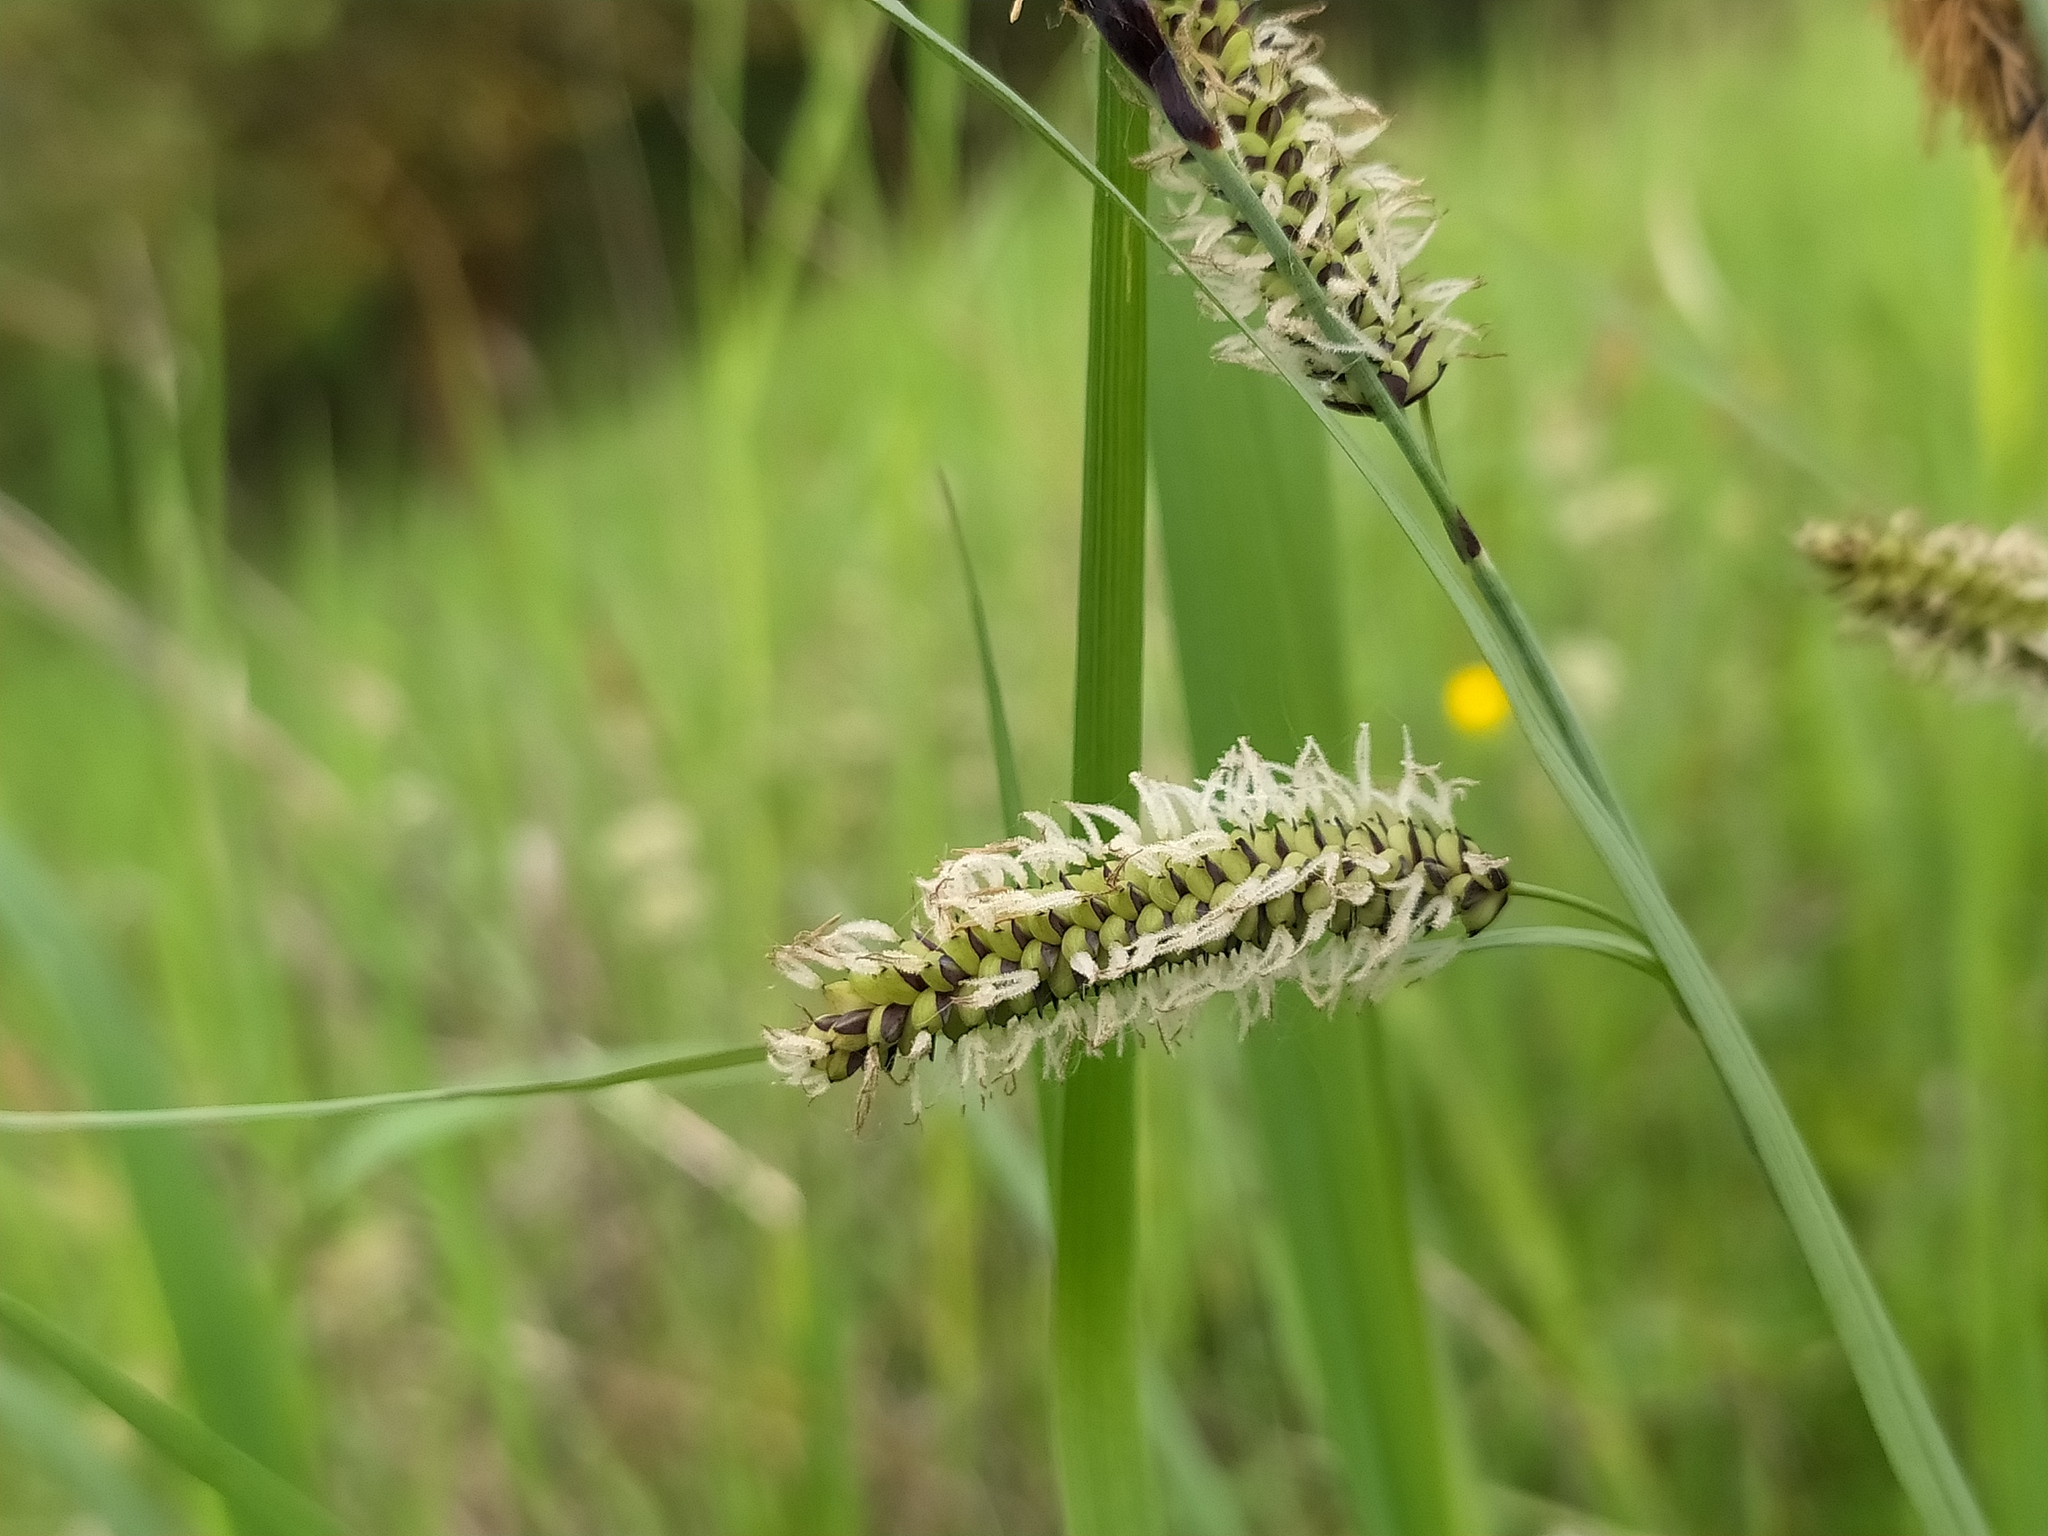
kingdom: Plantae
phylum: Tracheophyta
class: Liliopsida
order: Poales
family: Cyperaceae
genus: Carex
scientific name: Carex flacca
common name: Glaucous sedge
